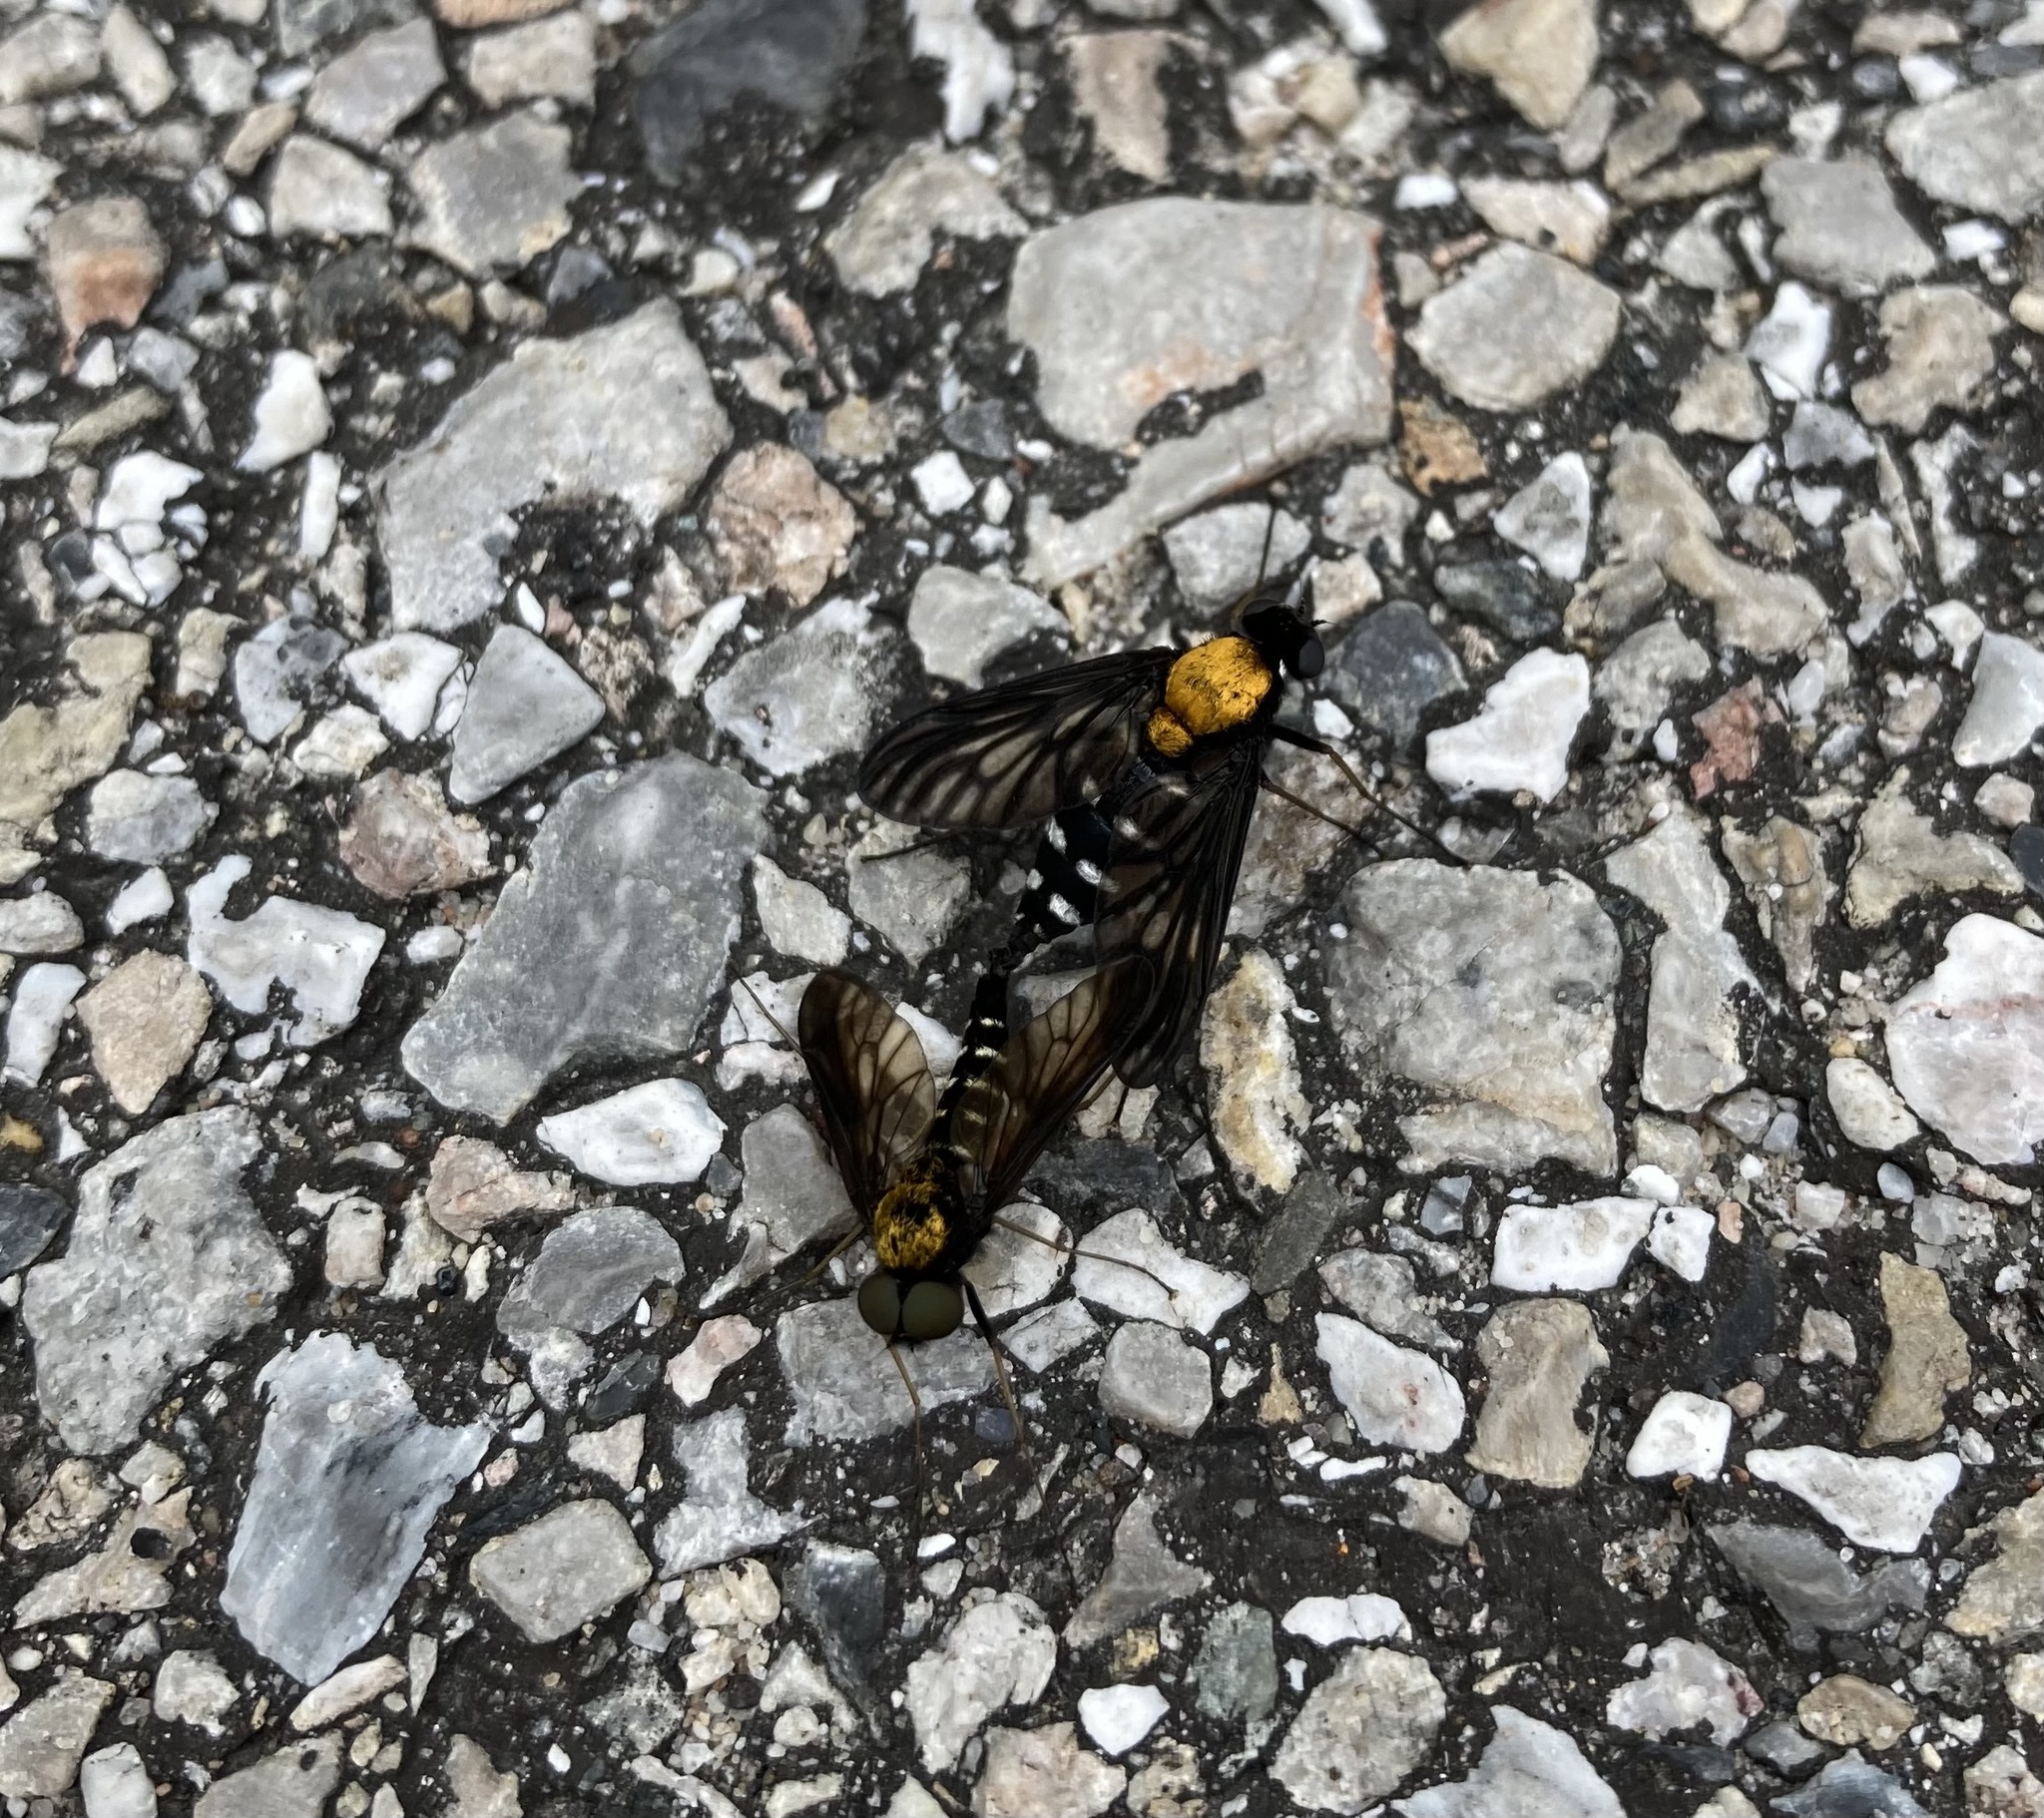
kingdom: Animalia
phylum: Arthropoda
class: Insecta
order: Diptera
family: Rhagionidae
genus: Chrysopilus
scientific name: Chrysopilus thoracicus
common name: Golden-backed snipe fly
